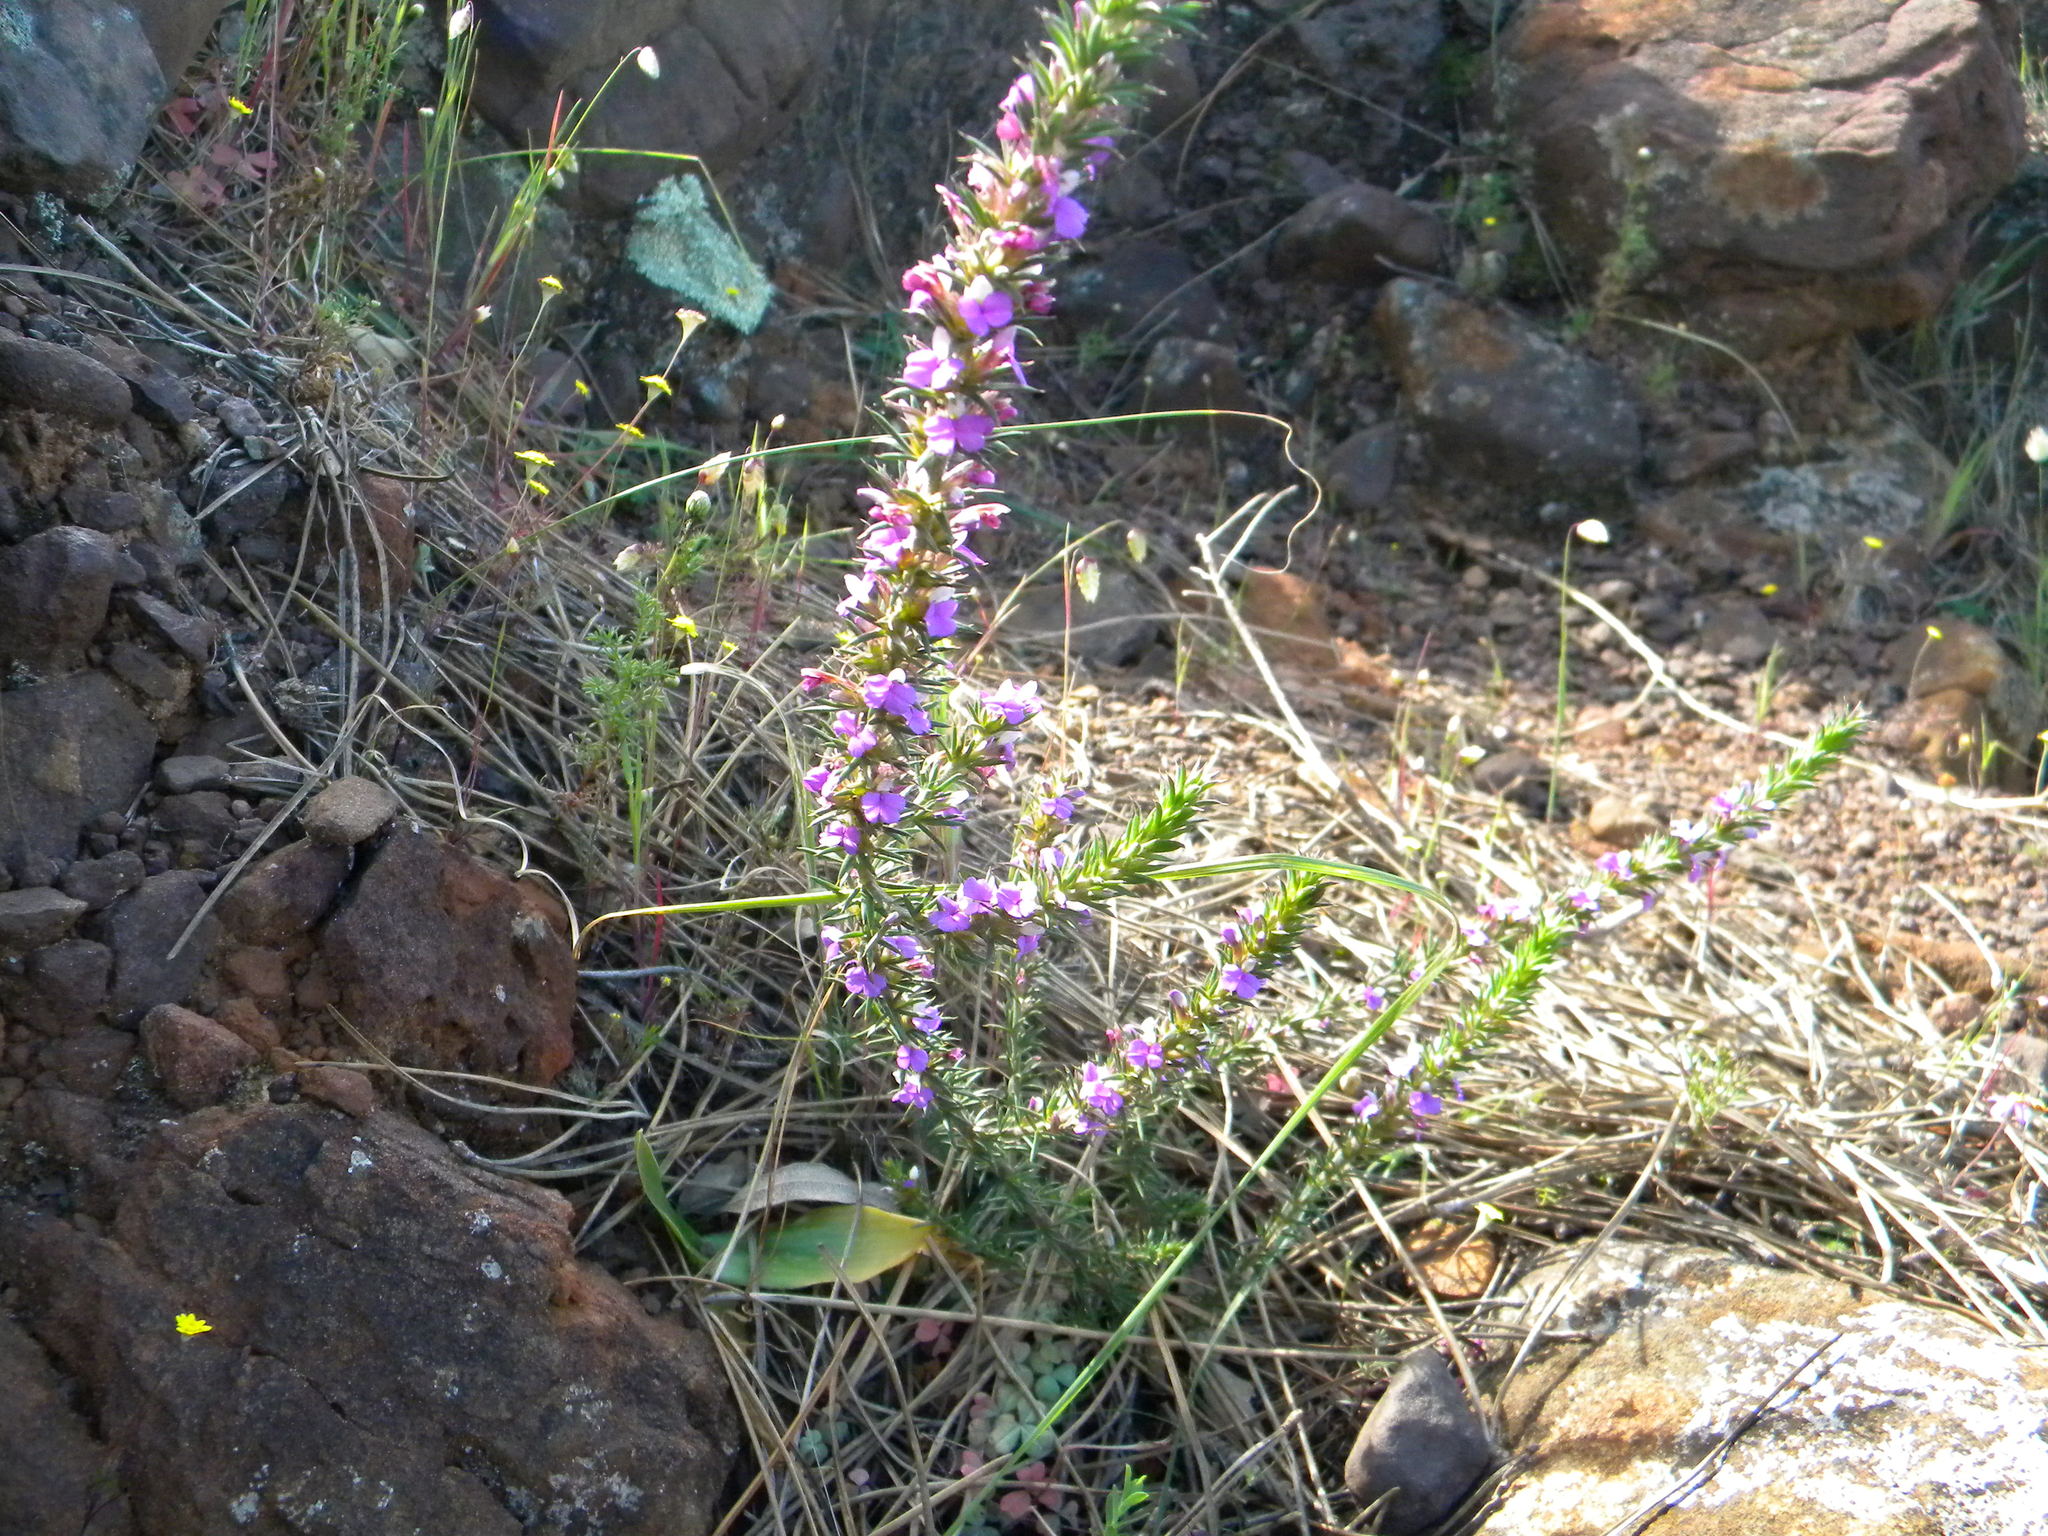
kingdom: Plantae
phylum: Tracheophyta
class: Magnoliopsida
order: Fabales
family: Polygalaceae
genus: Muraltia
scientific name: Muraltia heisteria
